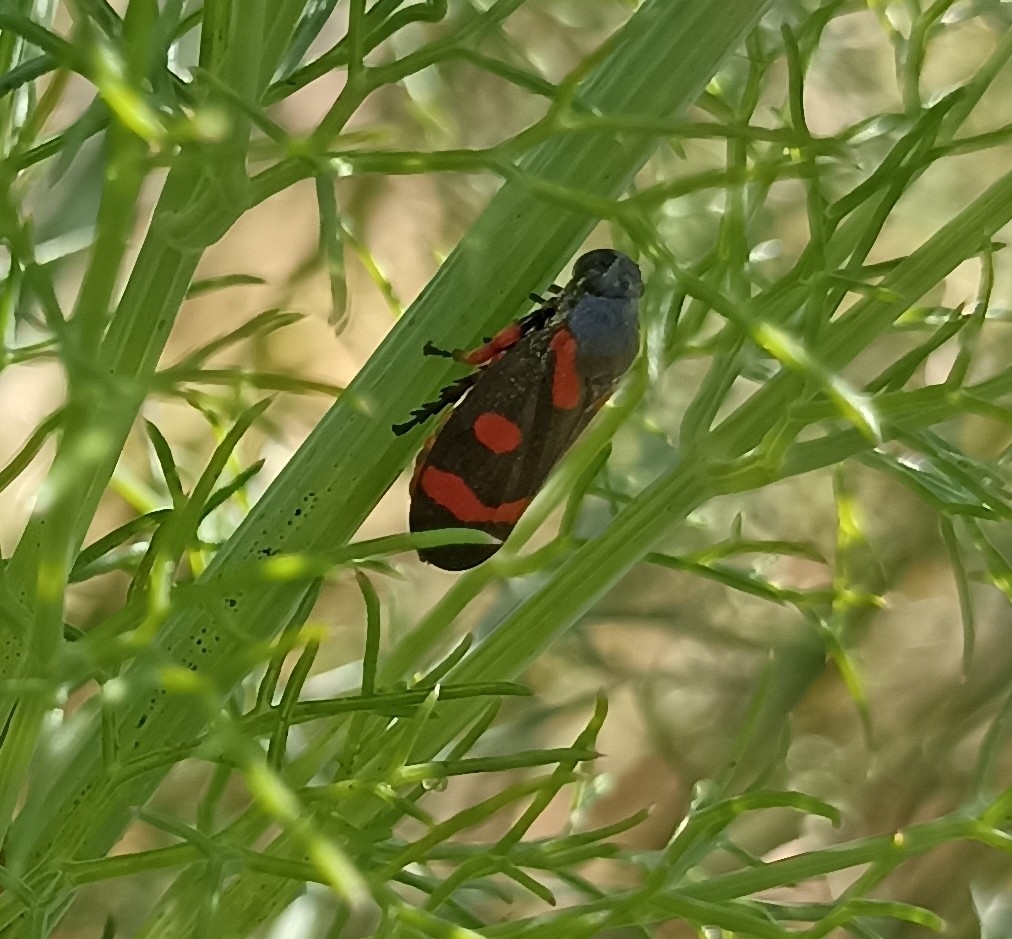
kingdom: Animalia
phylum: Arthropoda
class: Insecta
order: Hemiptera
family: Cercopidae
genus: Cercopis
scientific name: Cercopis intermedia
